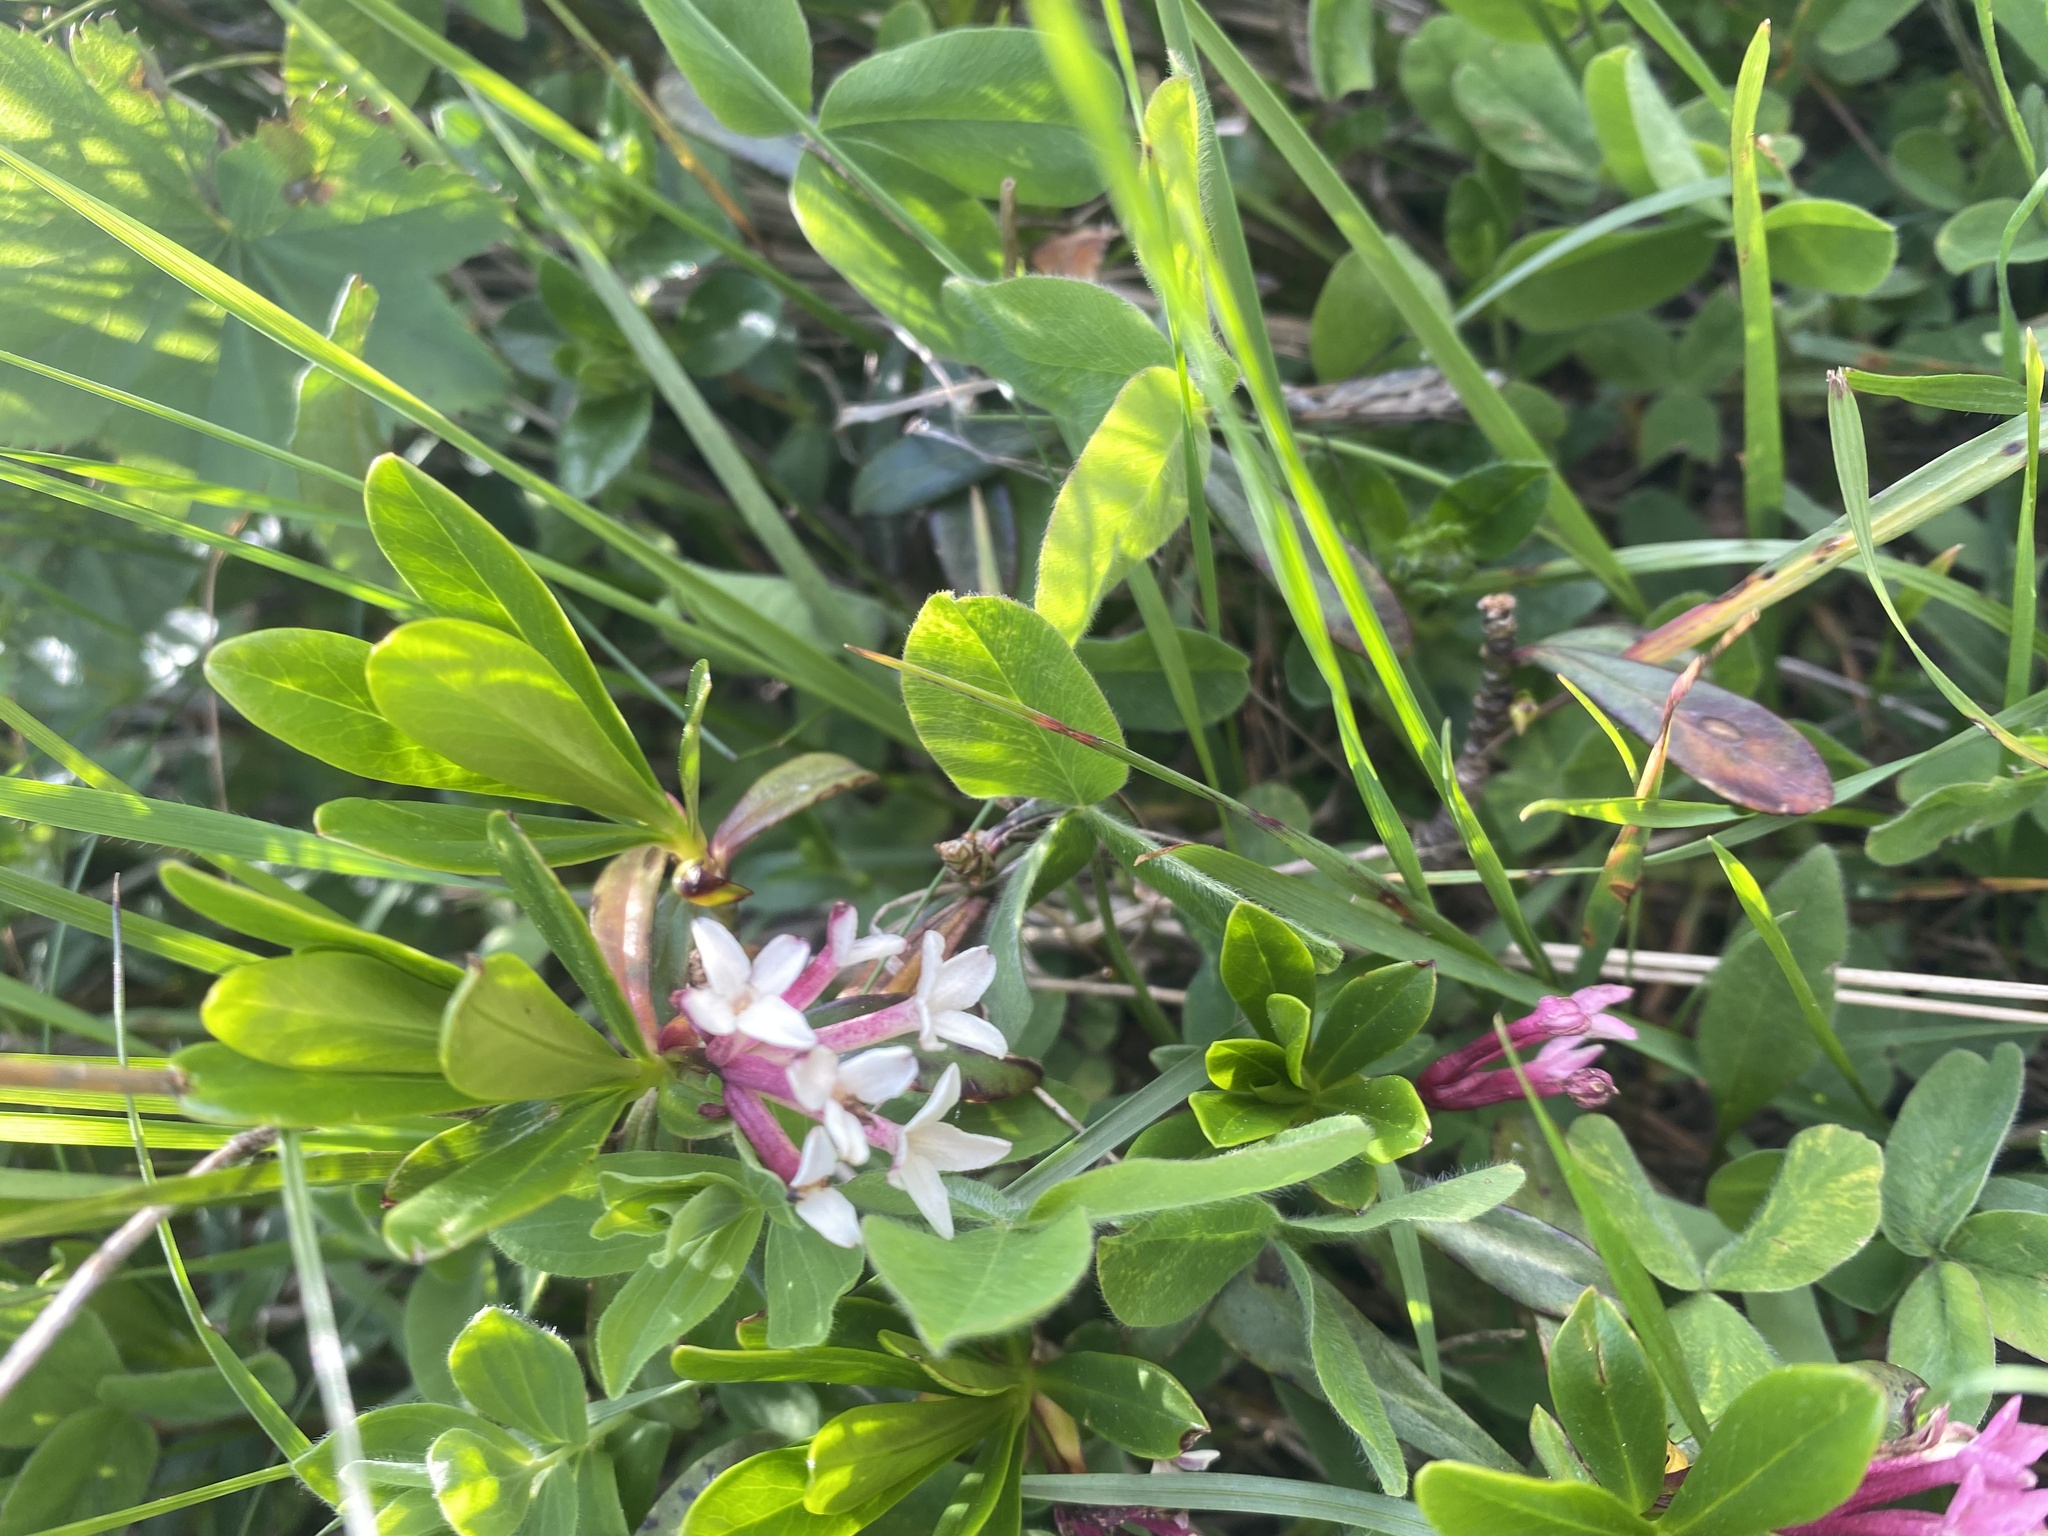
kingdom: Plantae
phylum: Tracheophyta
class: Magnoliopsida
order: Malvales
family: Thymelaeaceae
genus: Daphne
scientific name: Daphne glomerata
